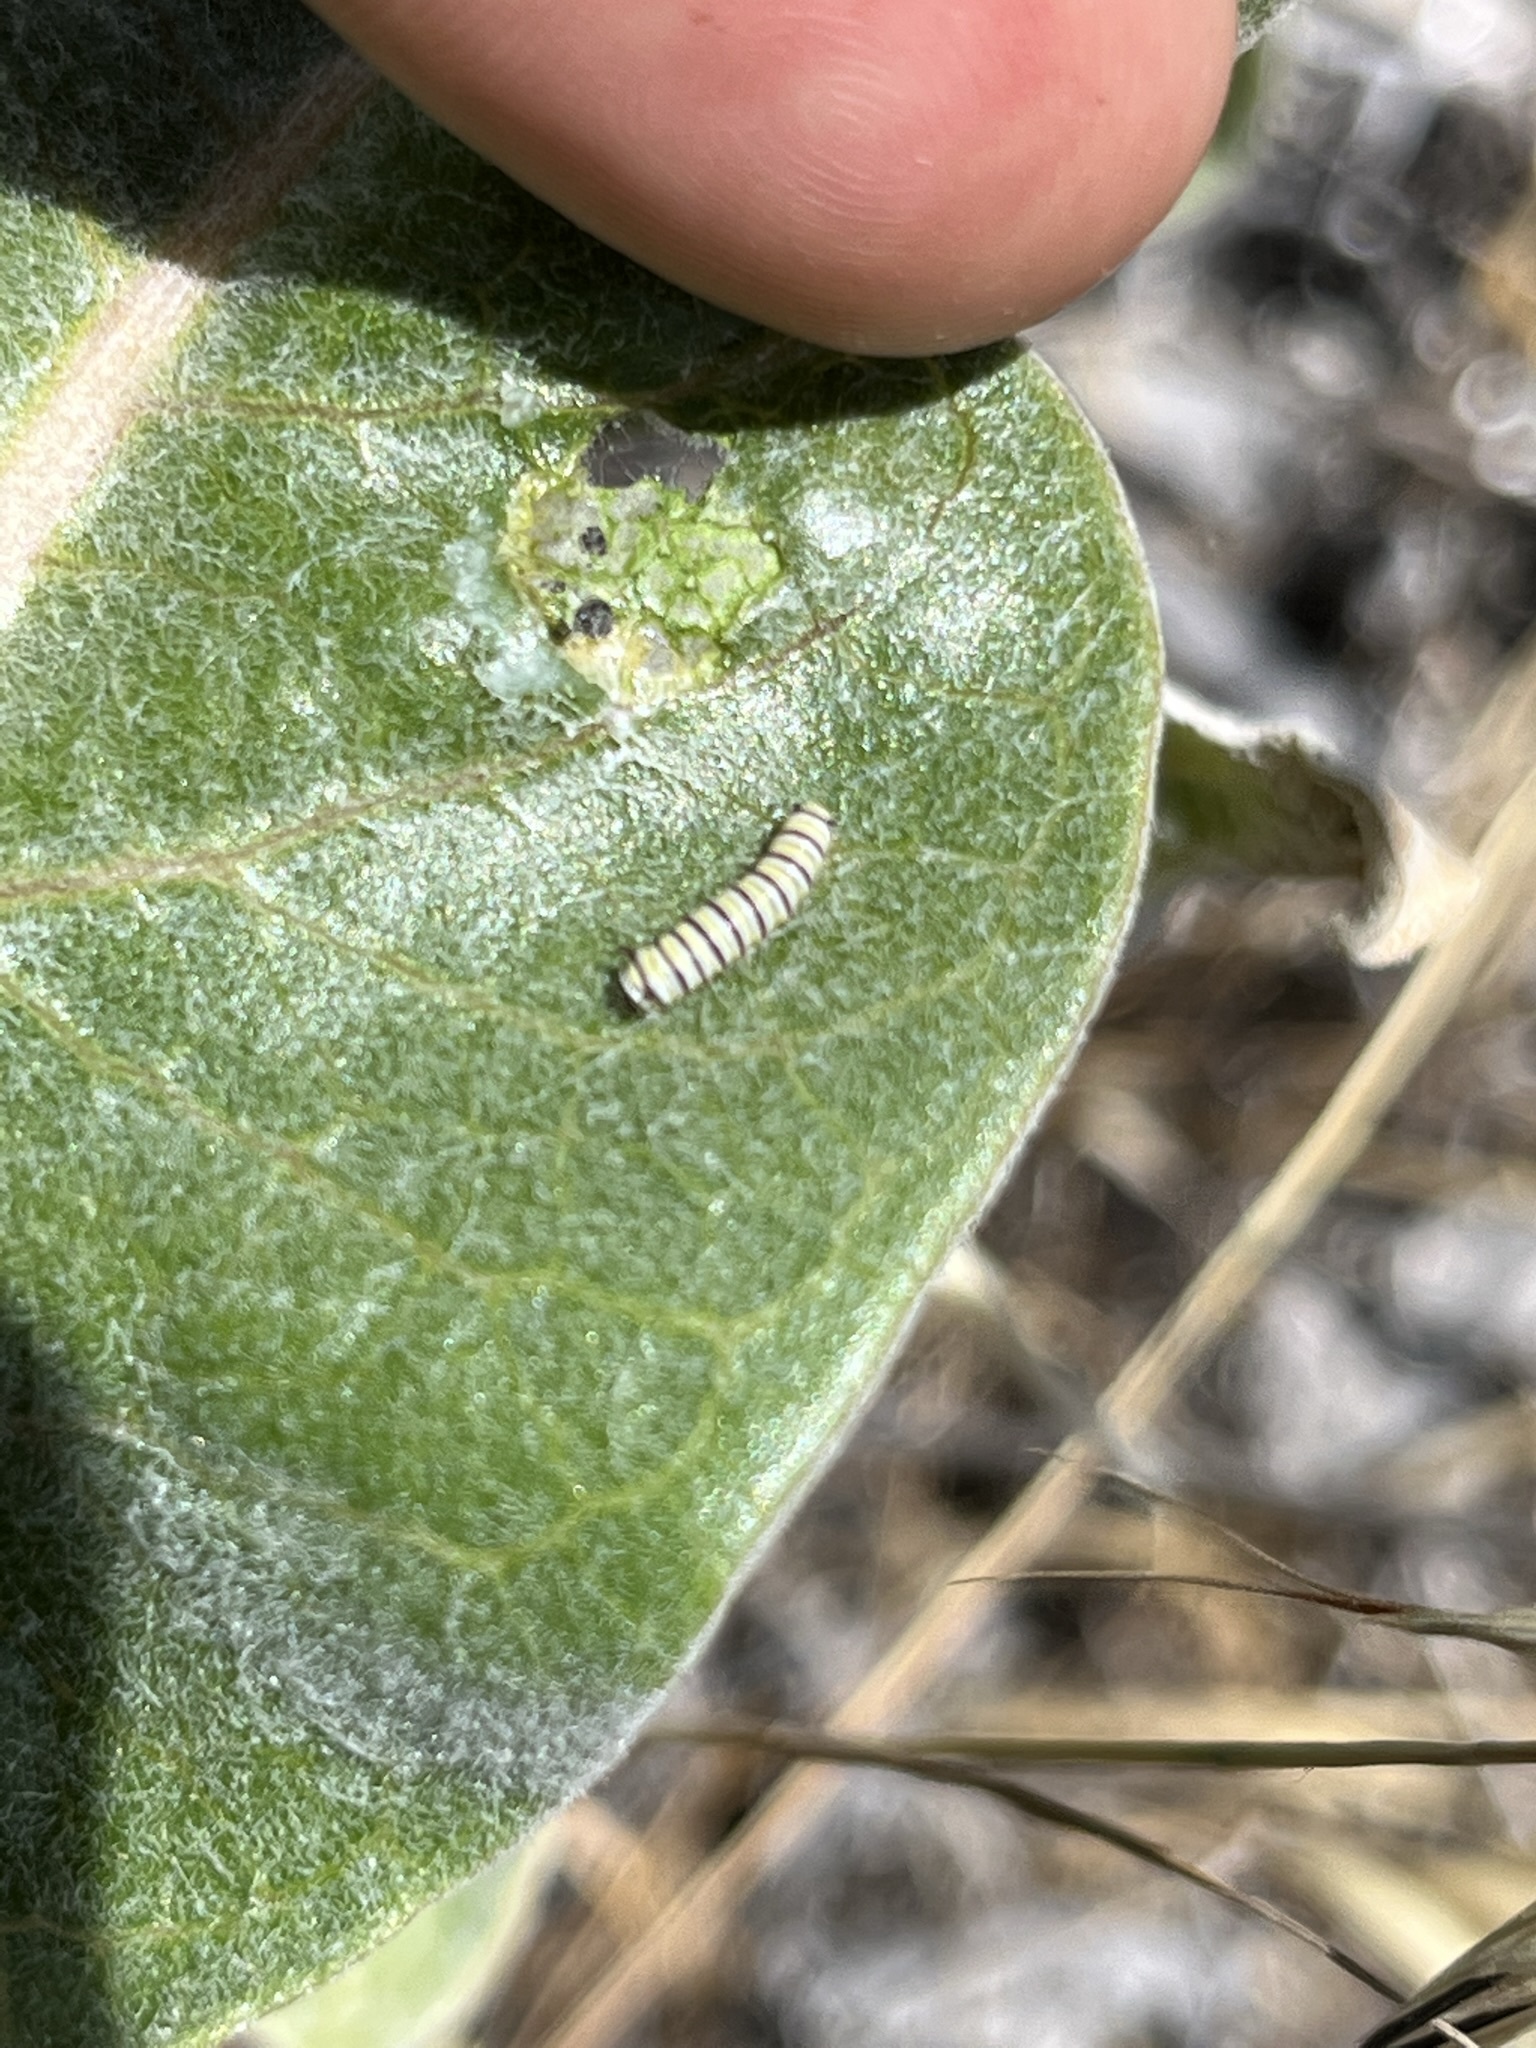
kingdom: Animalia
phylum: Arthropoda
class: Insecta
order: Lepidoptera
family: Nymphalidae
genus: Danaus
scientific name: Danaus plexippus
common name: Monarch
